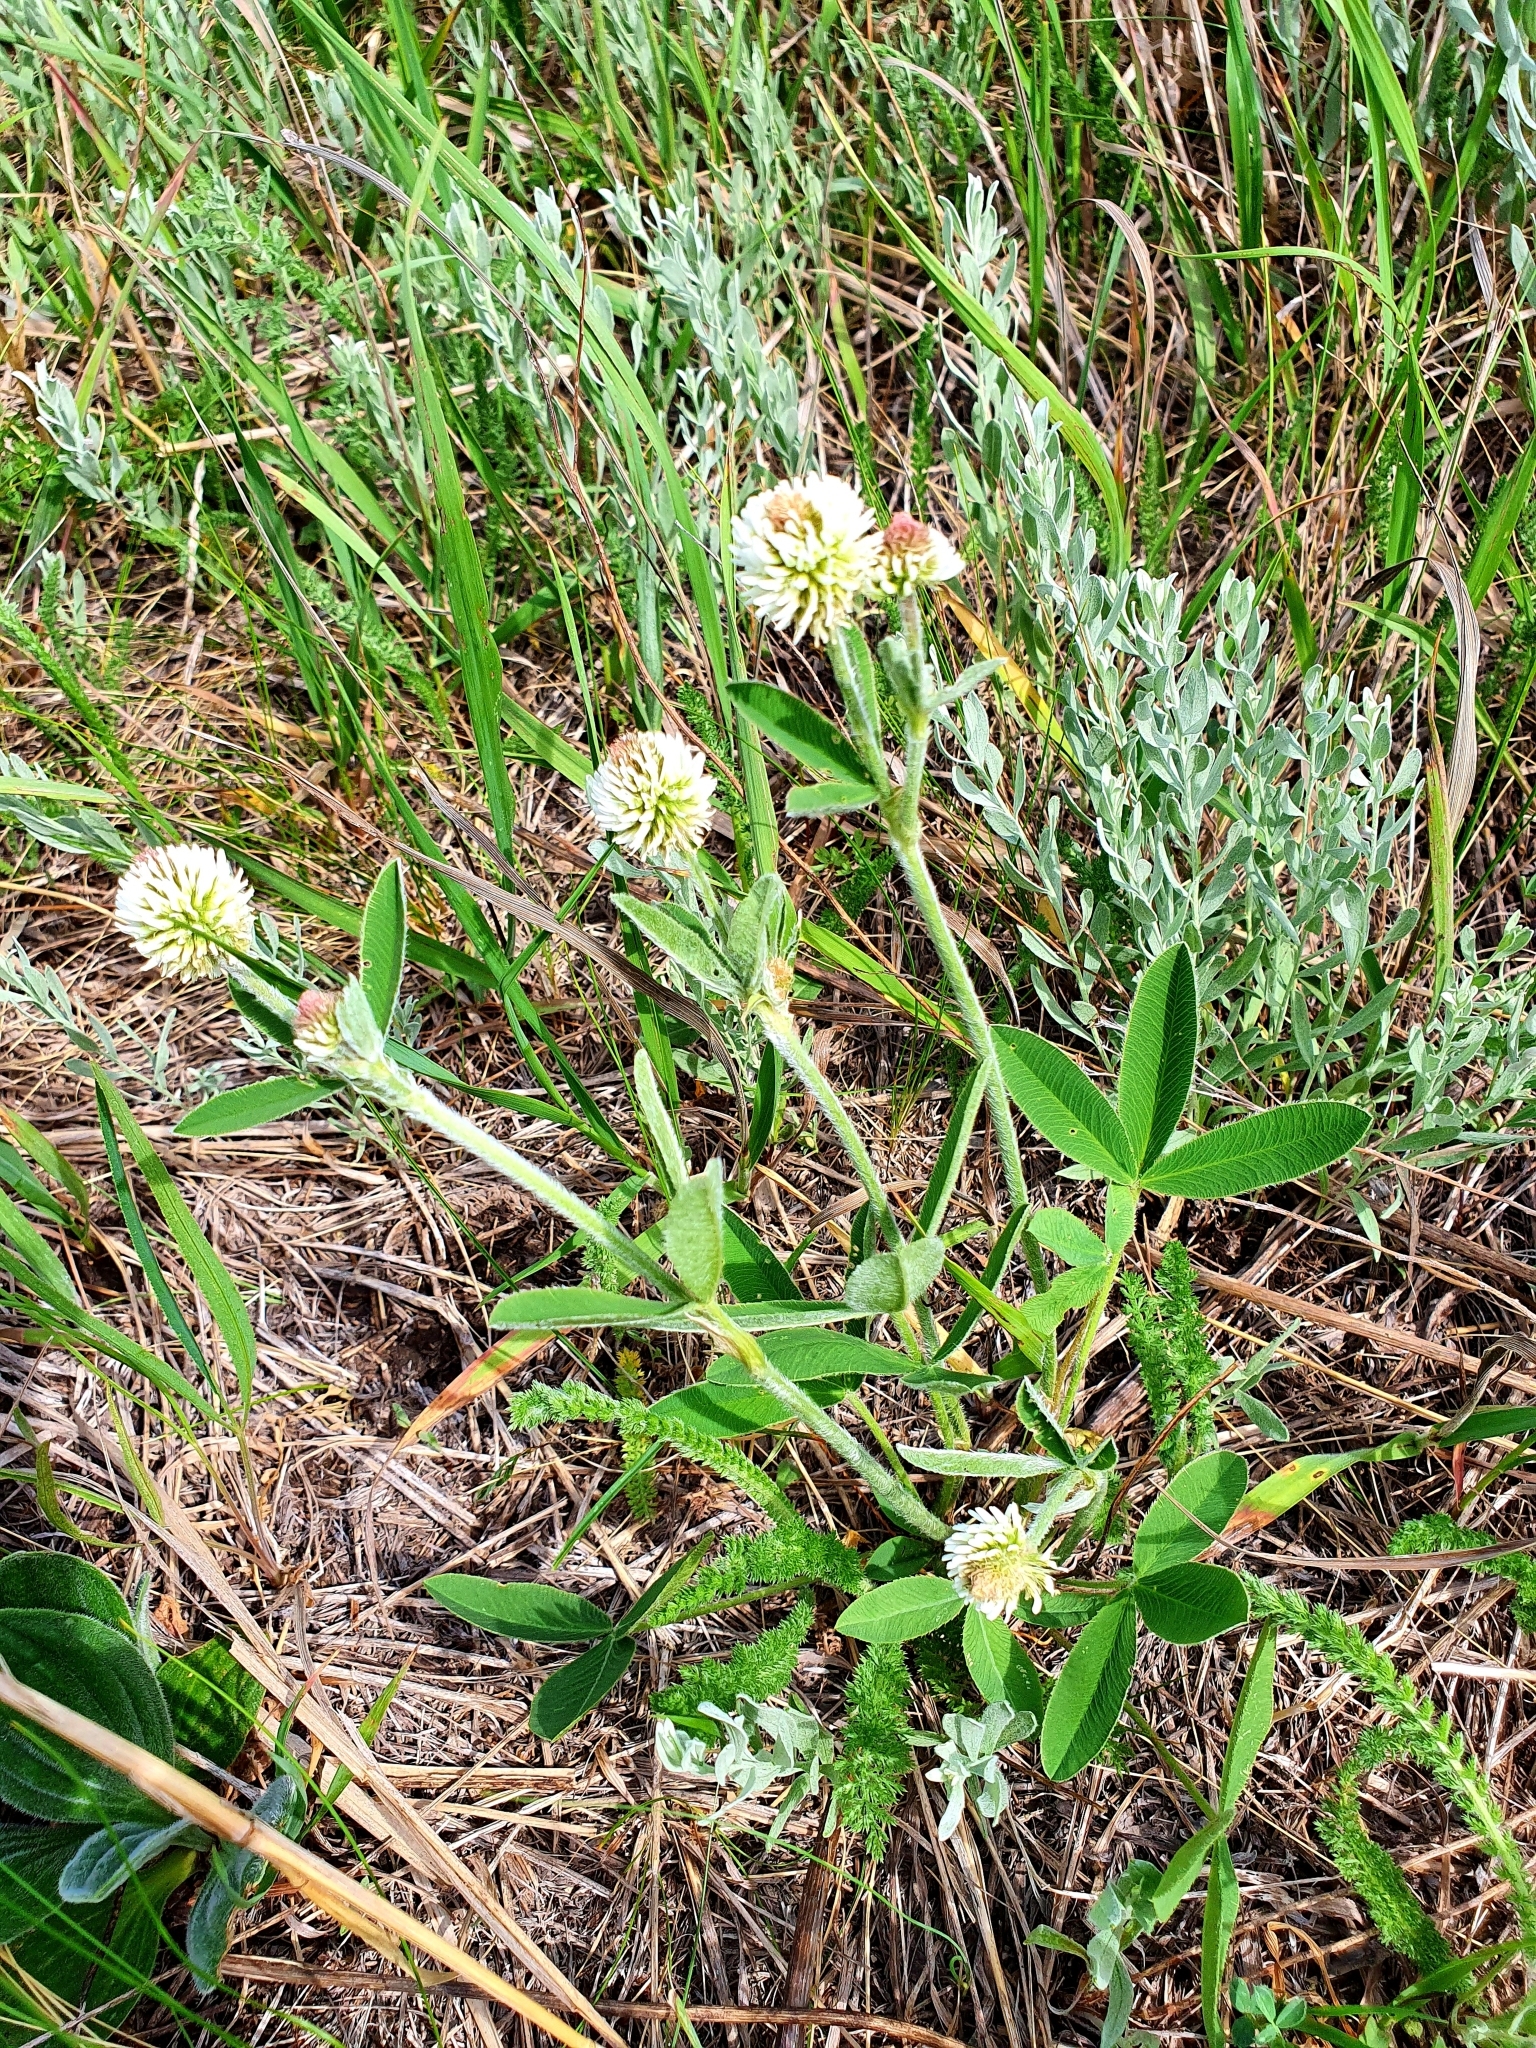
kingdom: Plantae
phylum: Tracheophyta
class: Magnoliopsida
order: Fabales
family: Fabaceae
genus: Trifolium
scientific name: Trifolium montanum
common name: Mountain clover
